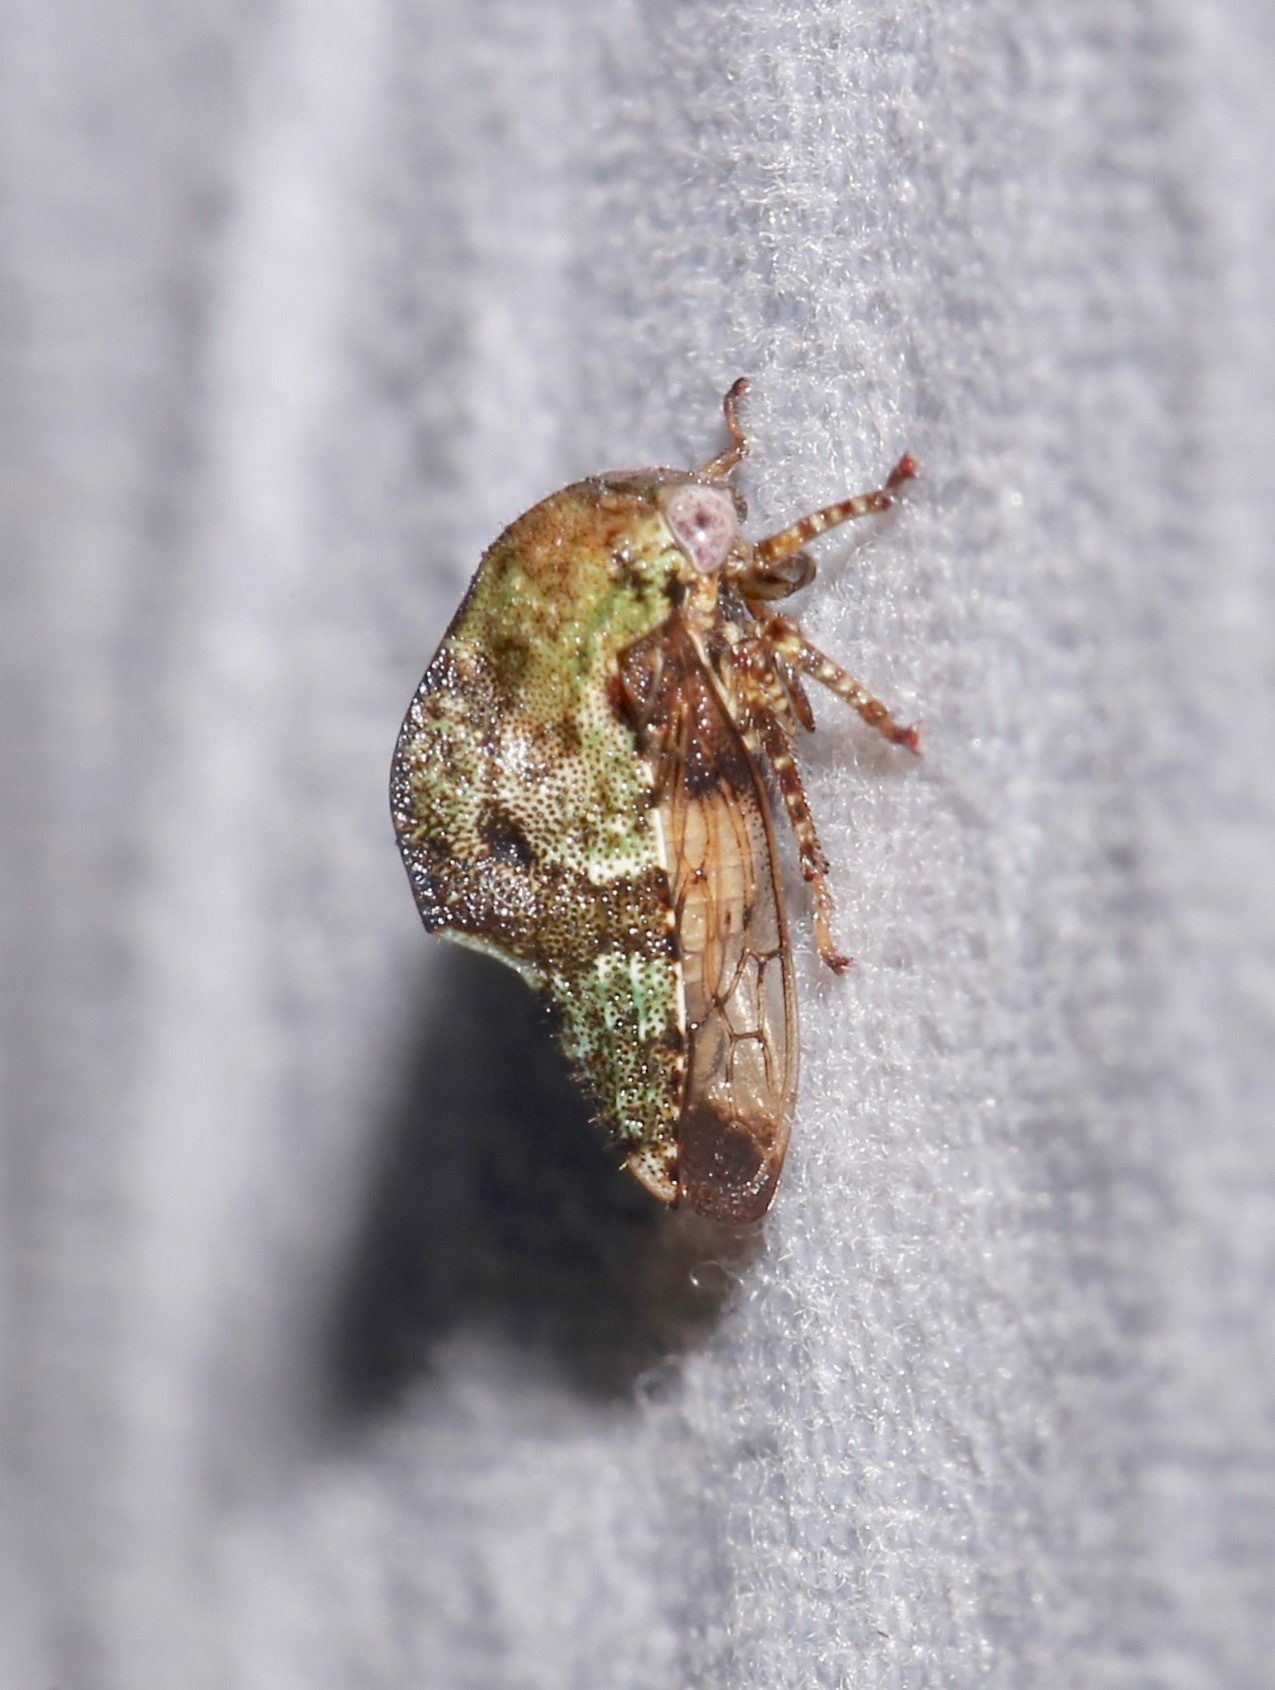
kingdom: Animalia
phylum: Arthropoda
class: Insecta
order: Hemiptera
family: Membracidae
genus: Telamona
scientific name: Telamona
